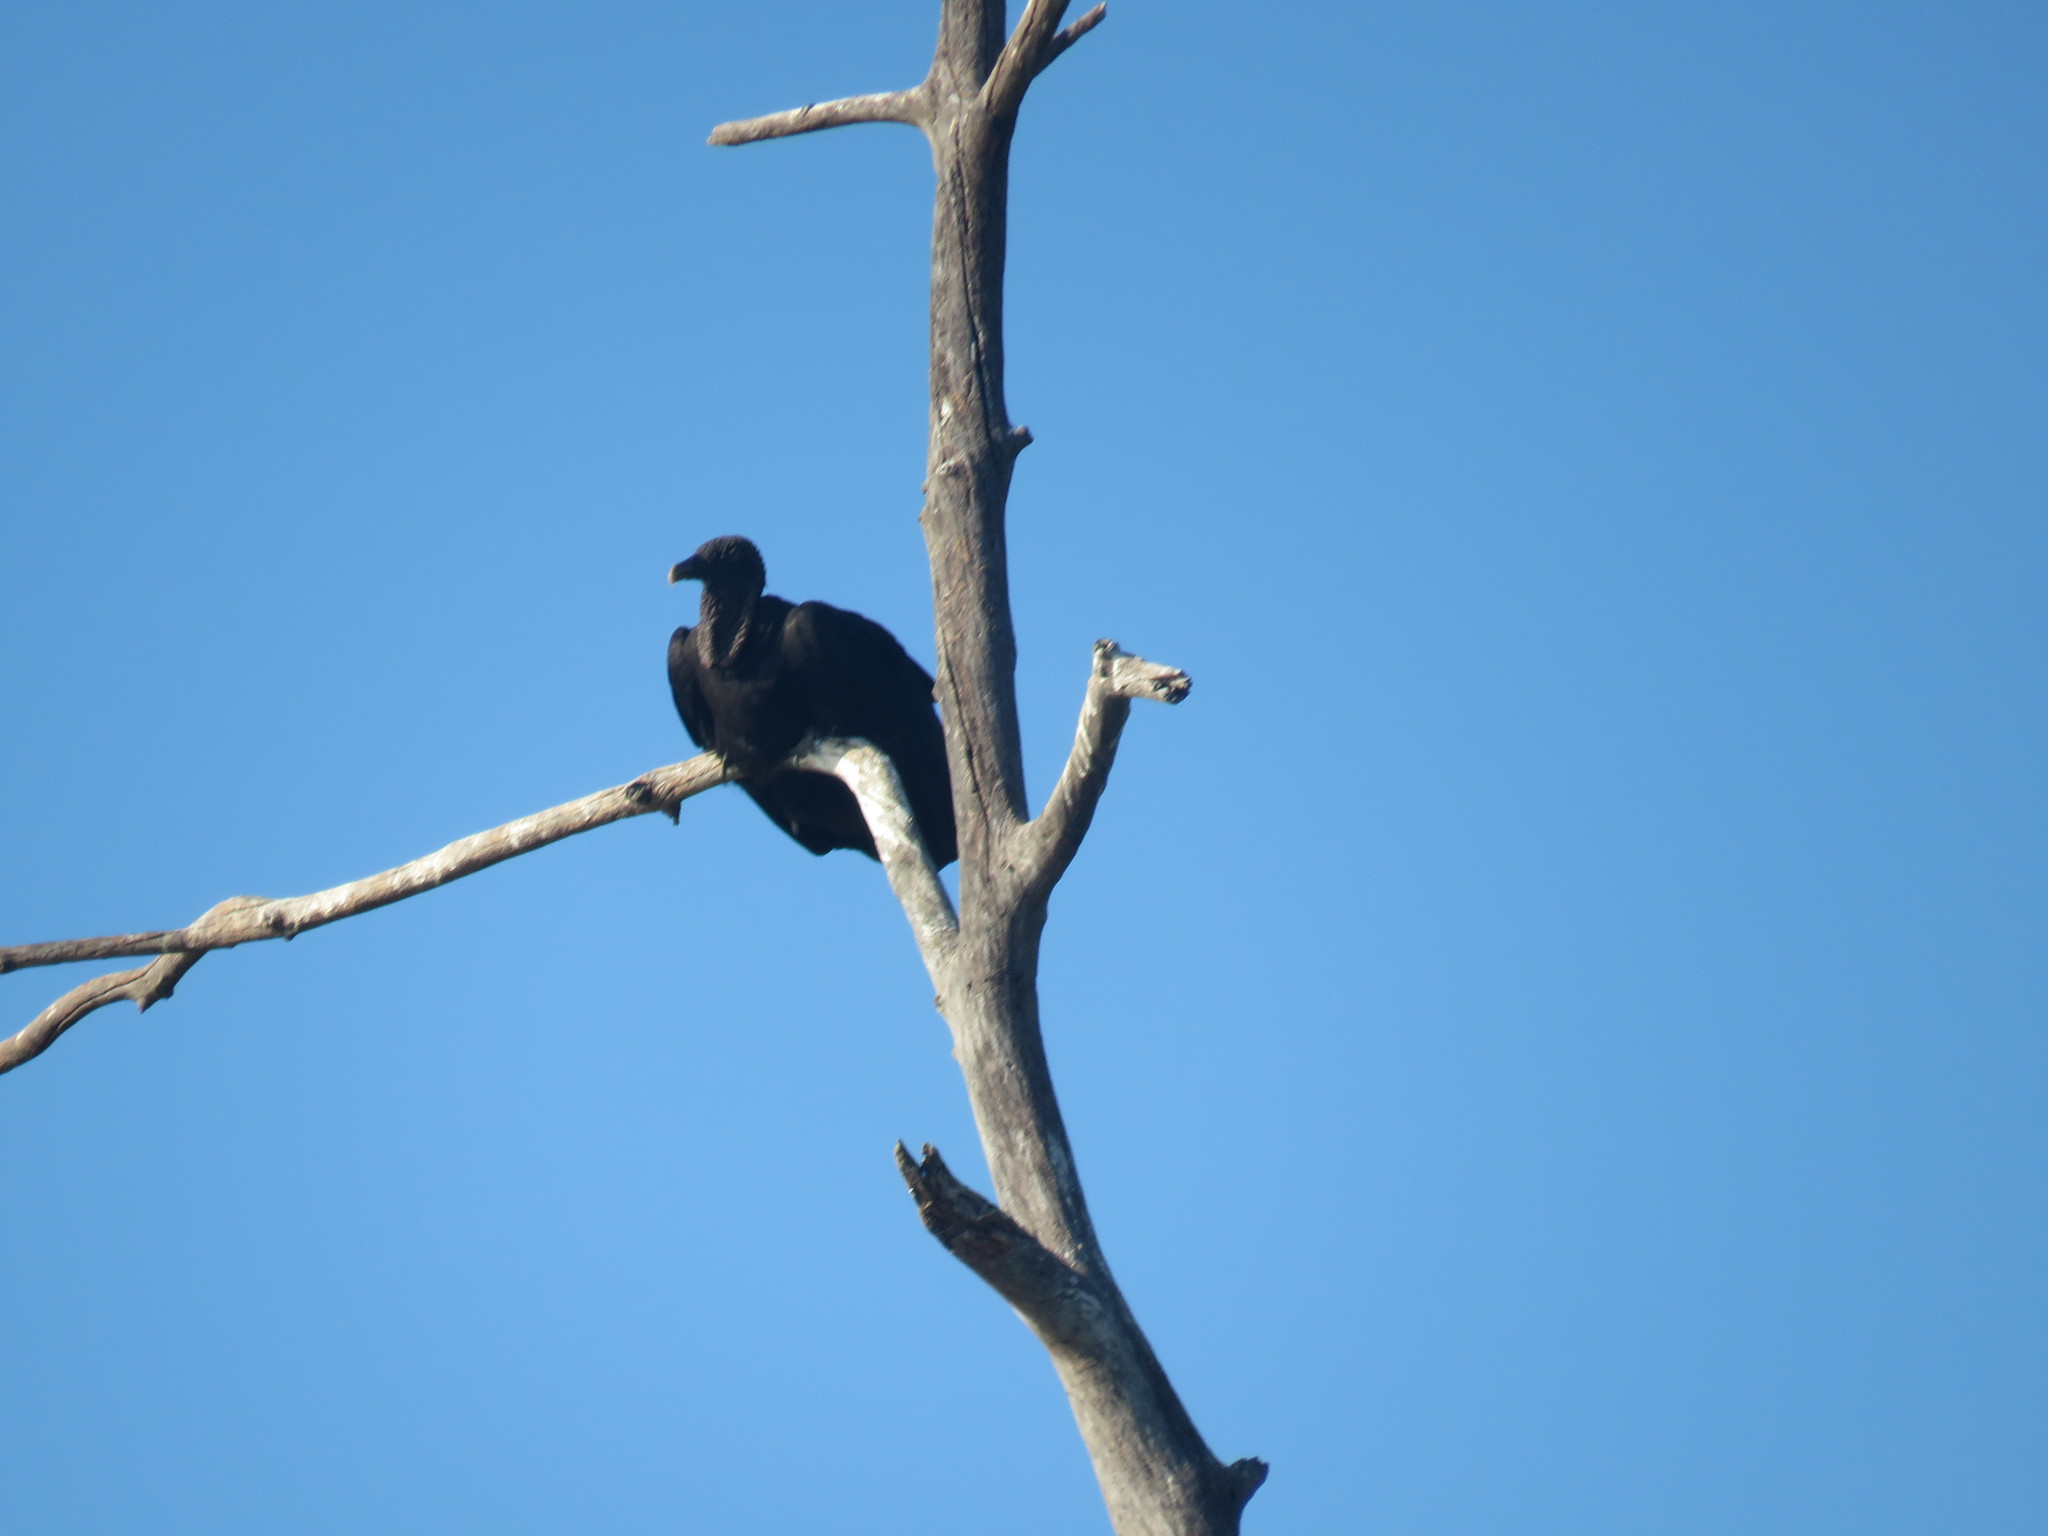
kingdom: Animalia
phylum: Chordata
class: Aves
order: Accipitriformes
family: Cathartidae
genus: Coragyps
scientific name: Coragyps atratus
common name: Black vulture
